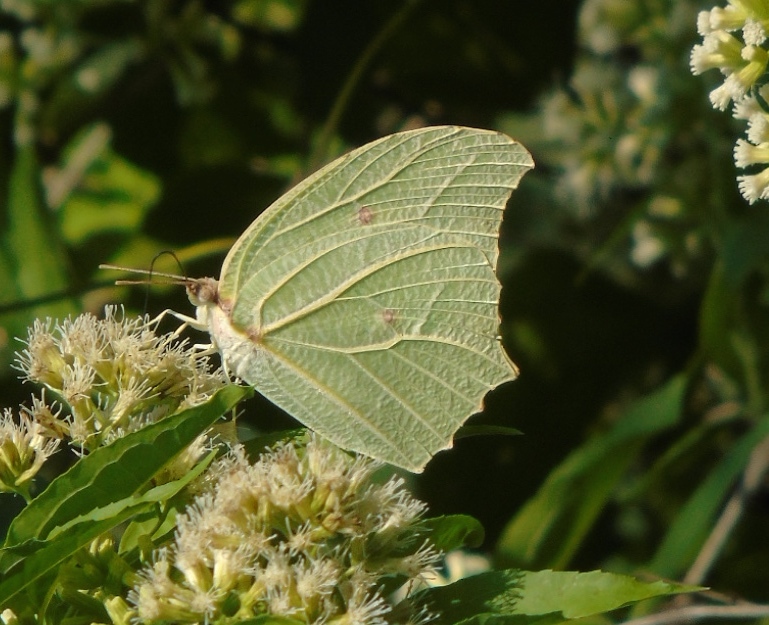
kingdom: Animalia
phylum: Arthropoda
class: Insecta
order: Lepidoptera
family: Pieridae
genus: Anteos
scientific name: Anteos clorinde
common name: White angled sulphur
